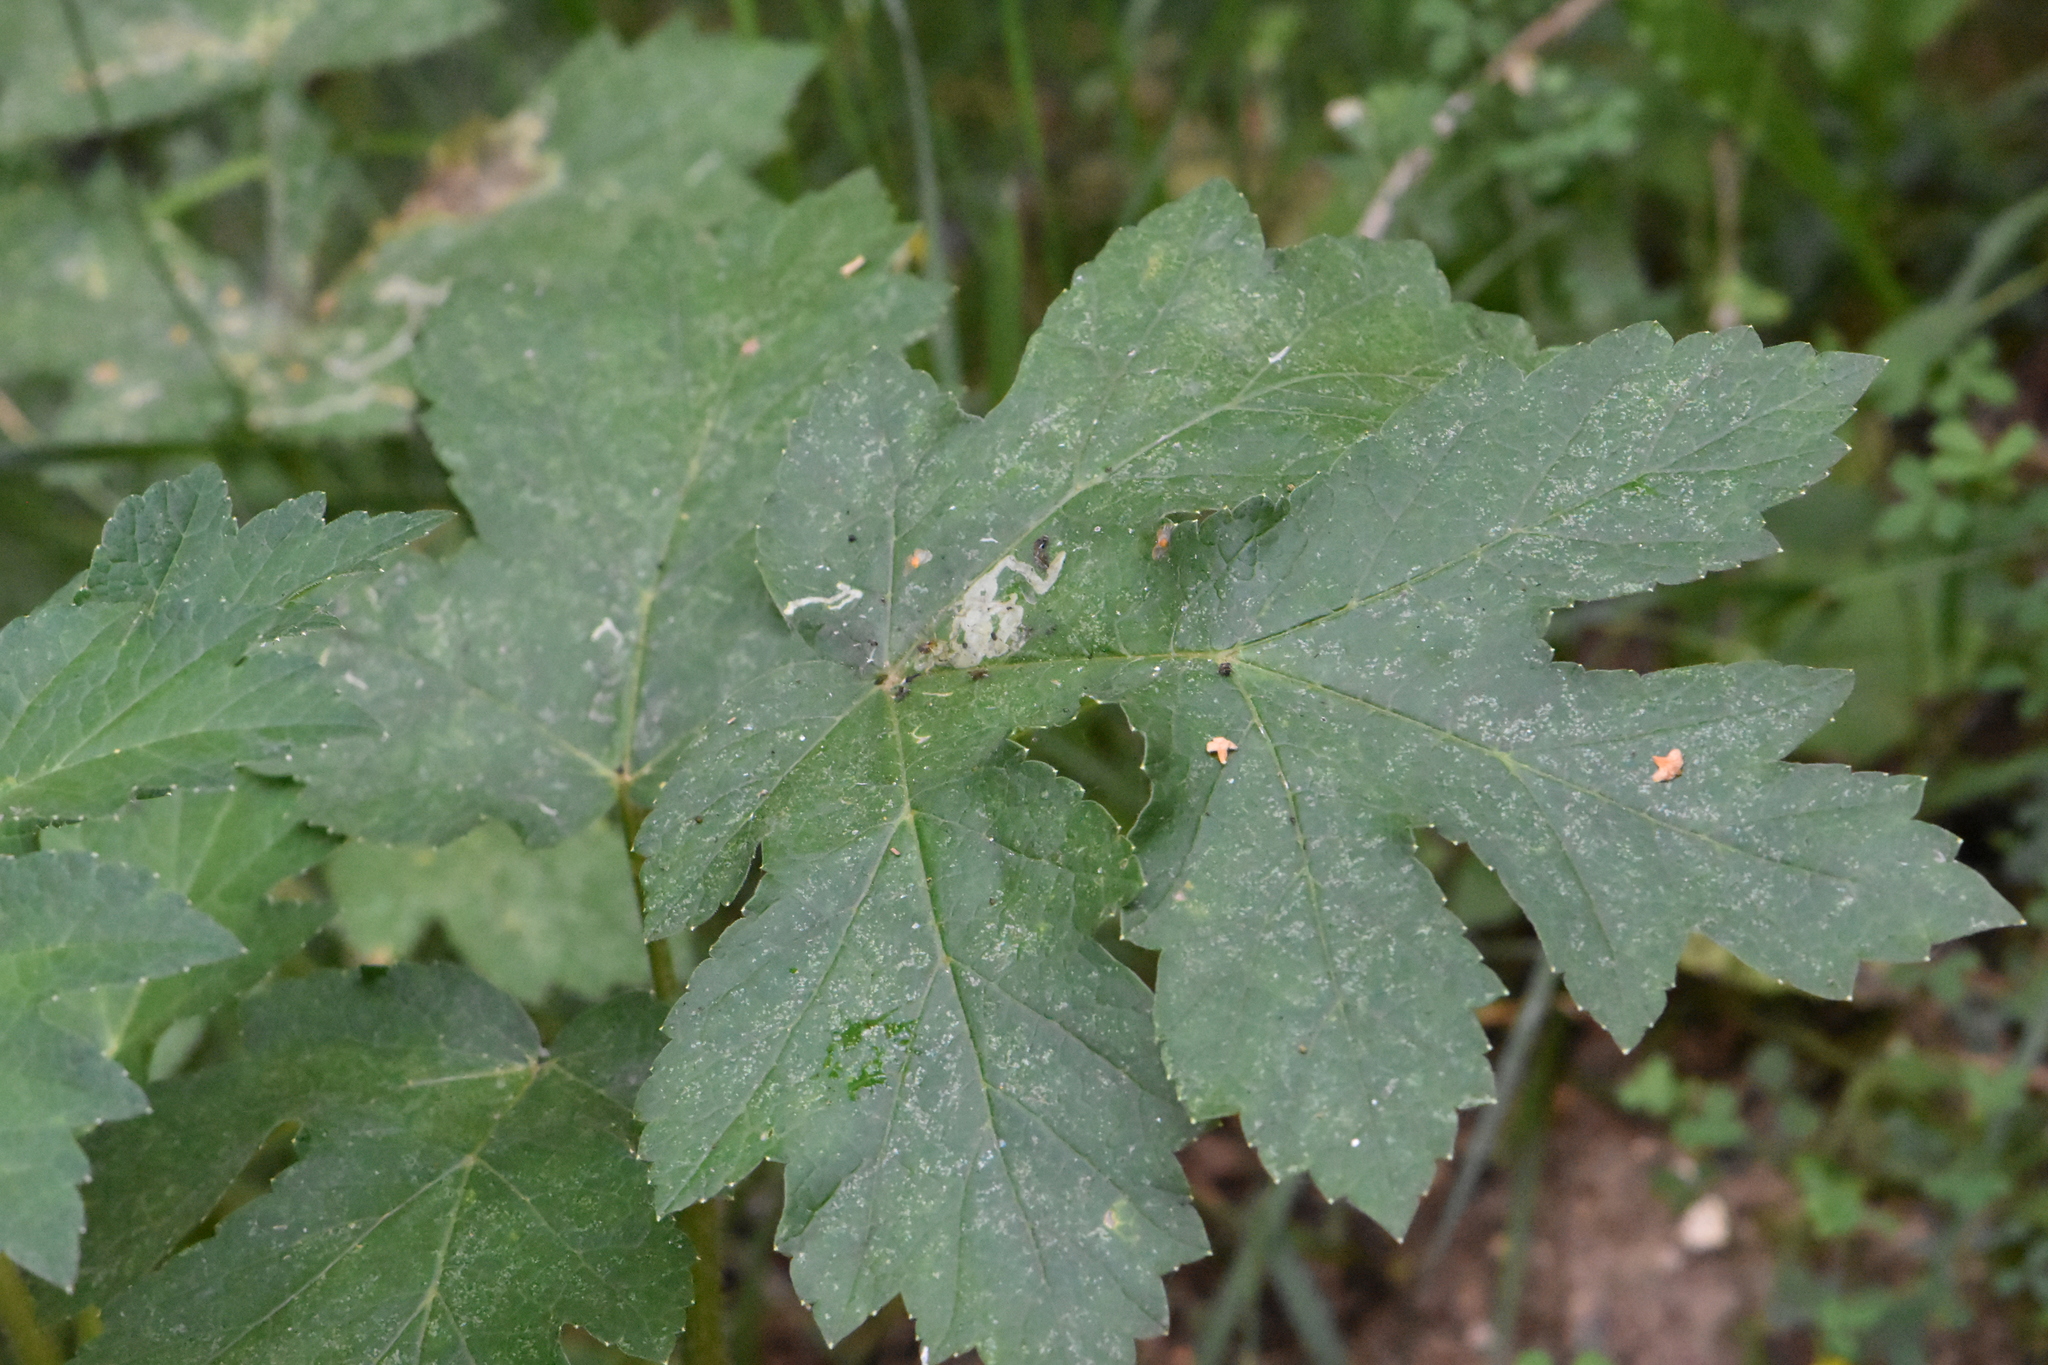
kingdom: Plantae
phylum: Tracheophyta
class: Magnoliopsida
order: Apiales
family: Apiaceae
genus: Heracleum
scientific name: Heracleum sphondylium
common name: Hogweed
